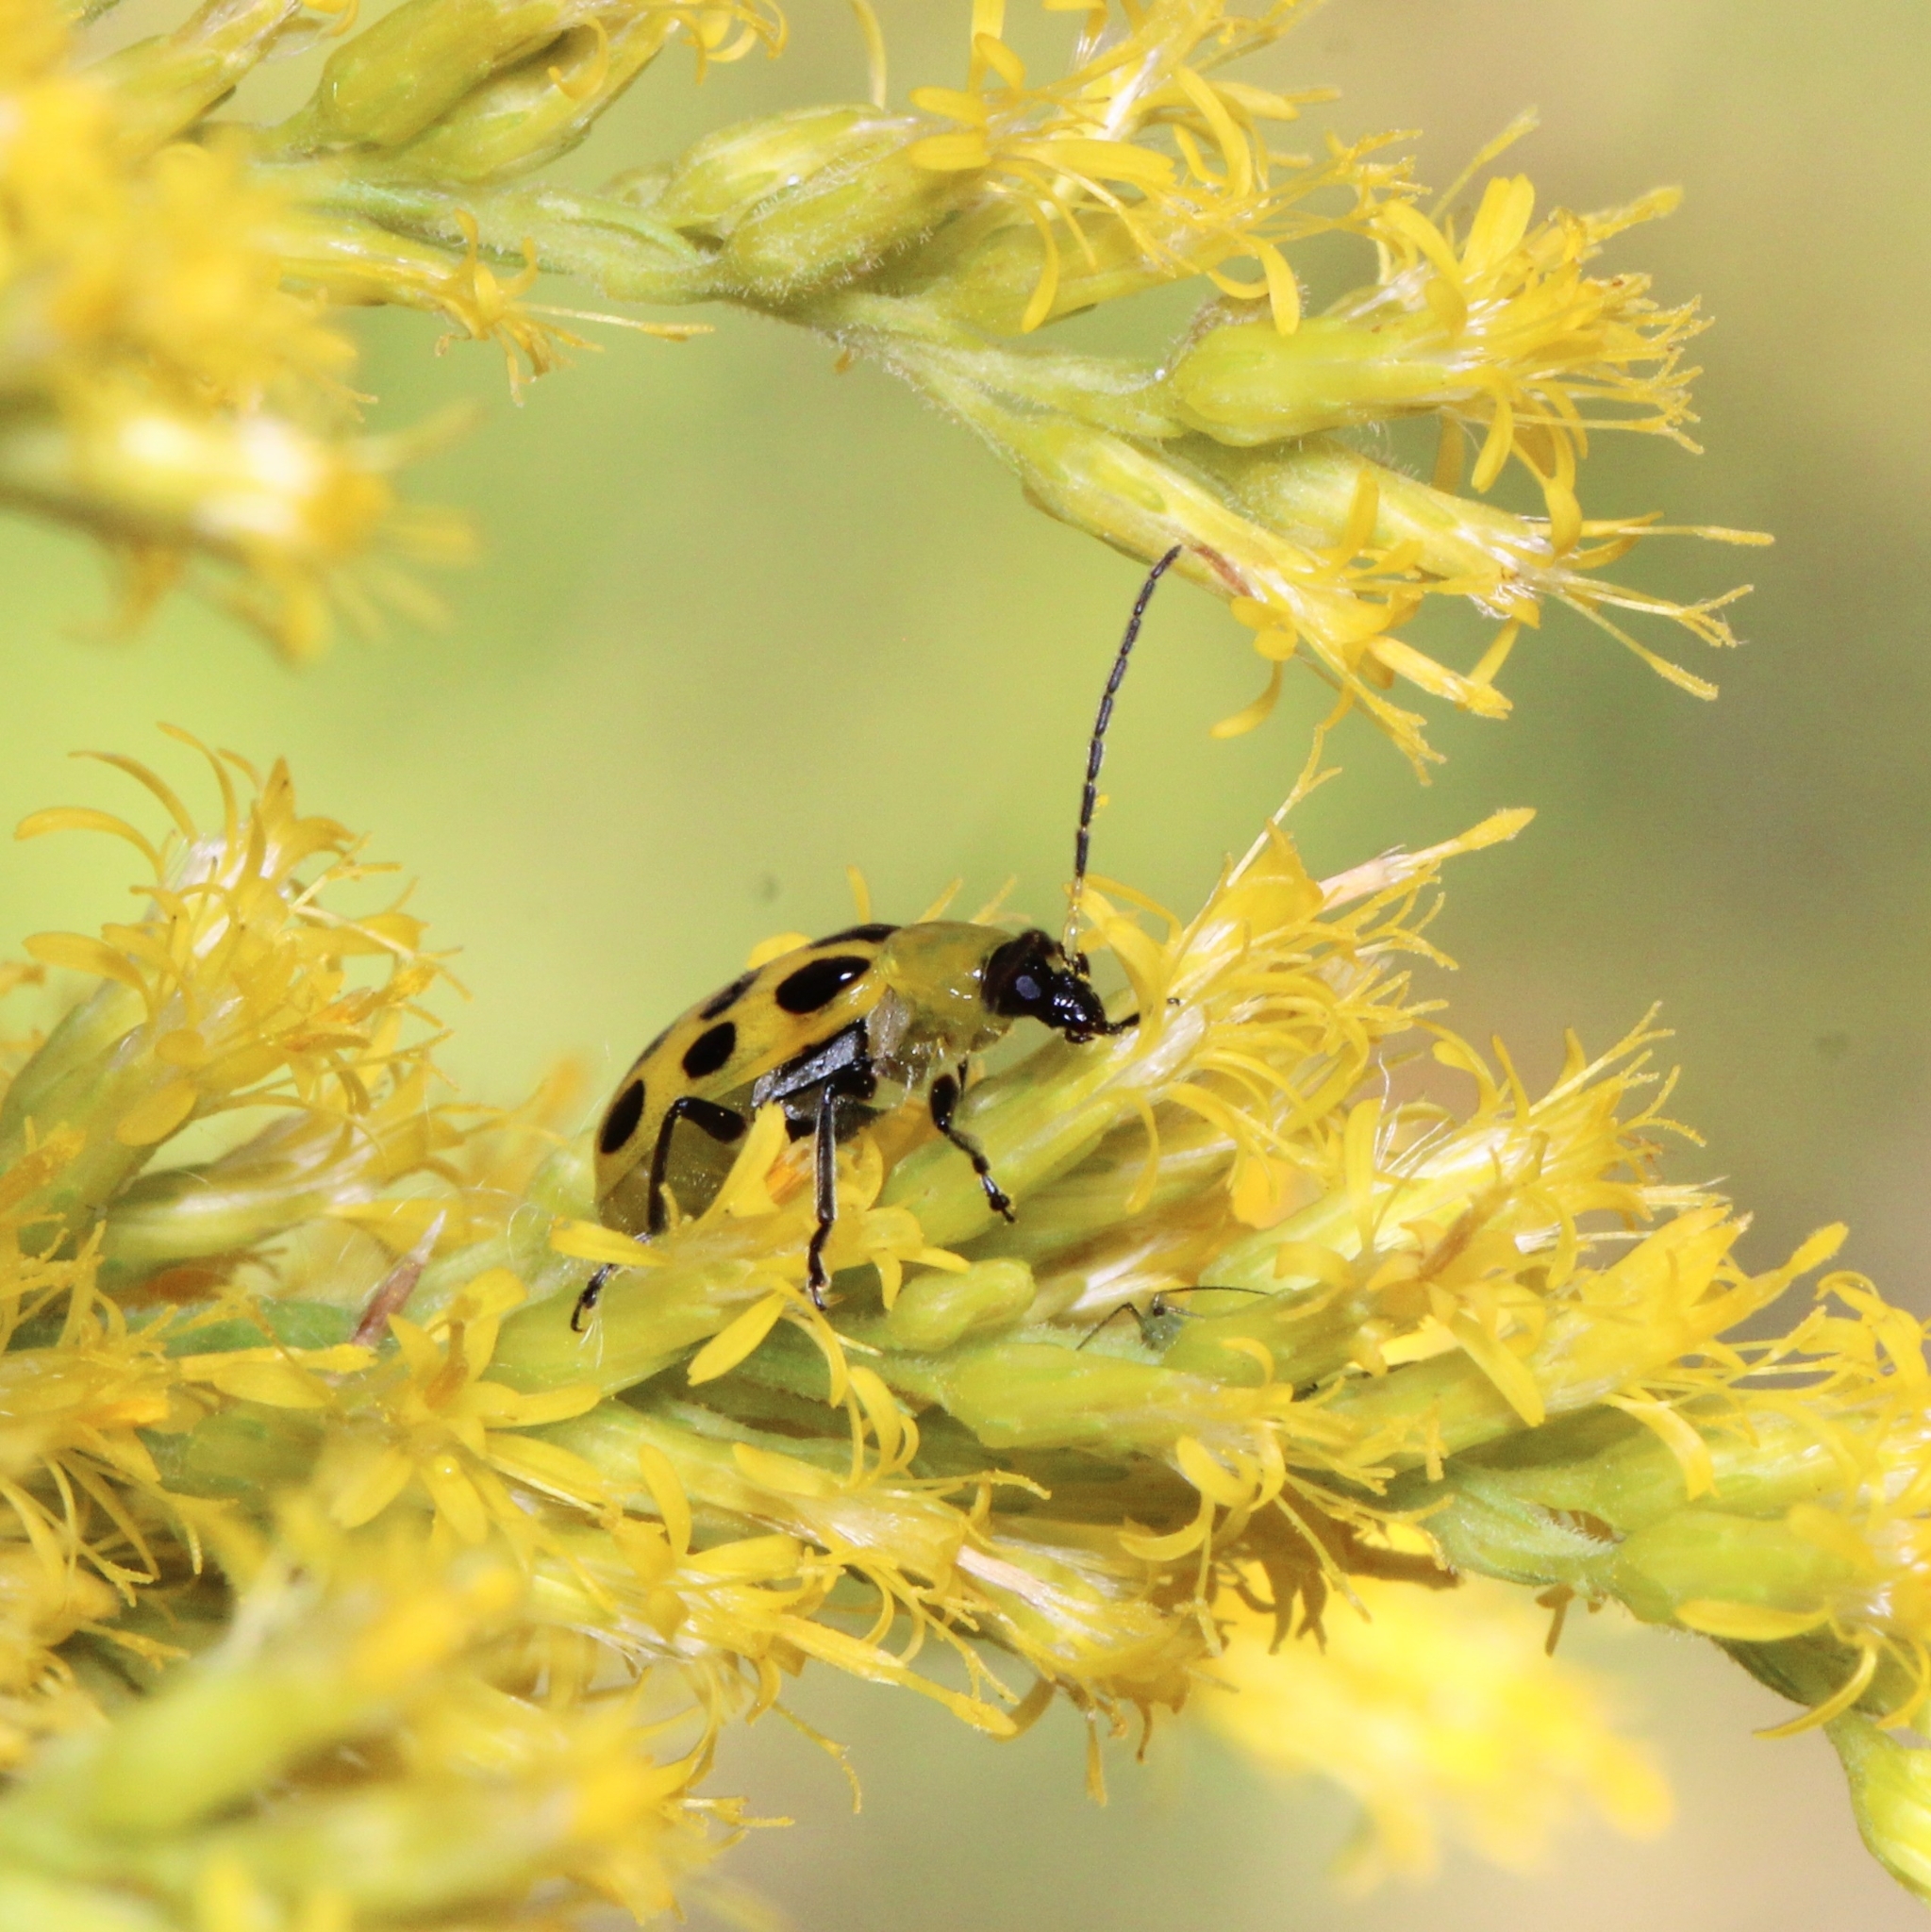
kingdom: Animalia
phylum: Arthropoda
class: Insecta
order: Coleoptera
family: Chrysomelidae
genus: Diabrotica
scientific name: Diabrotica undecimpunctata
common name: Spotted cucumber beetle
